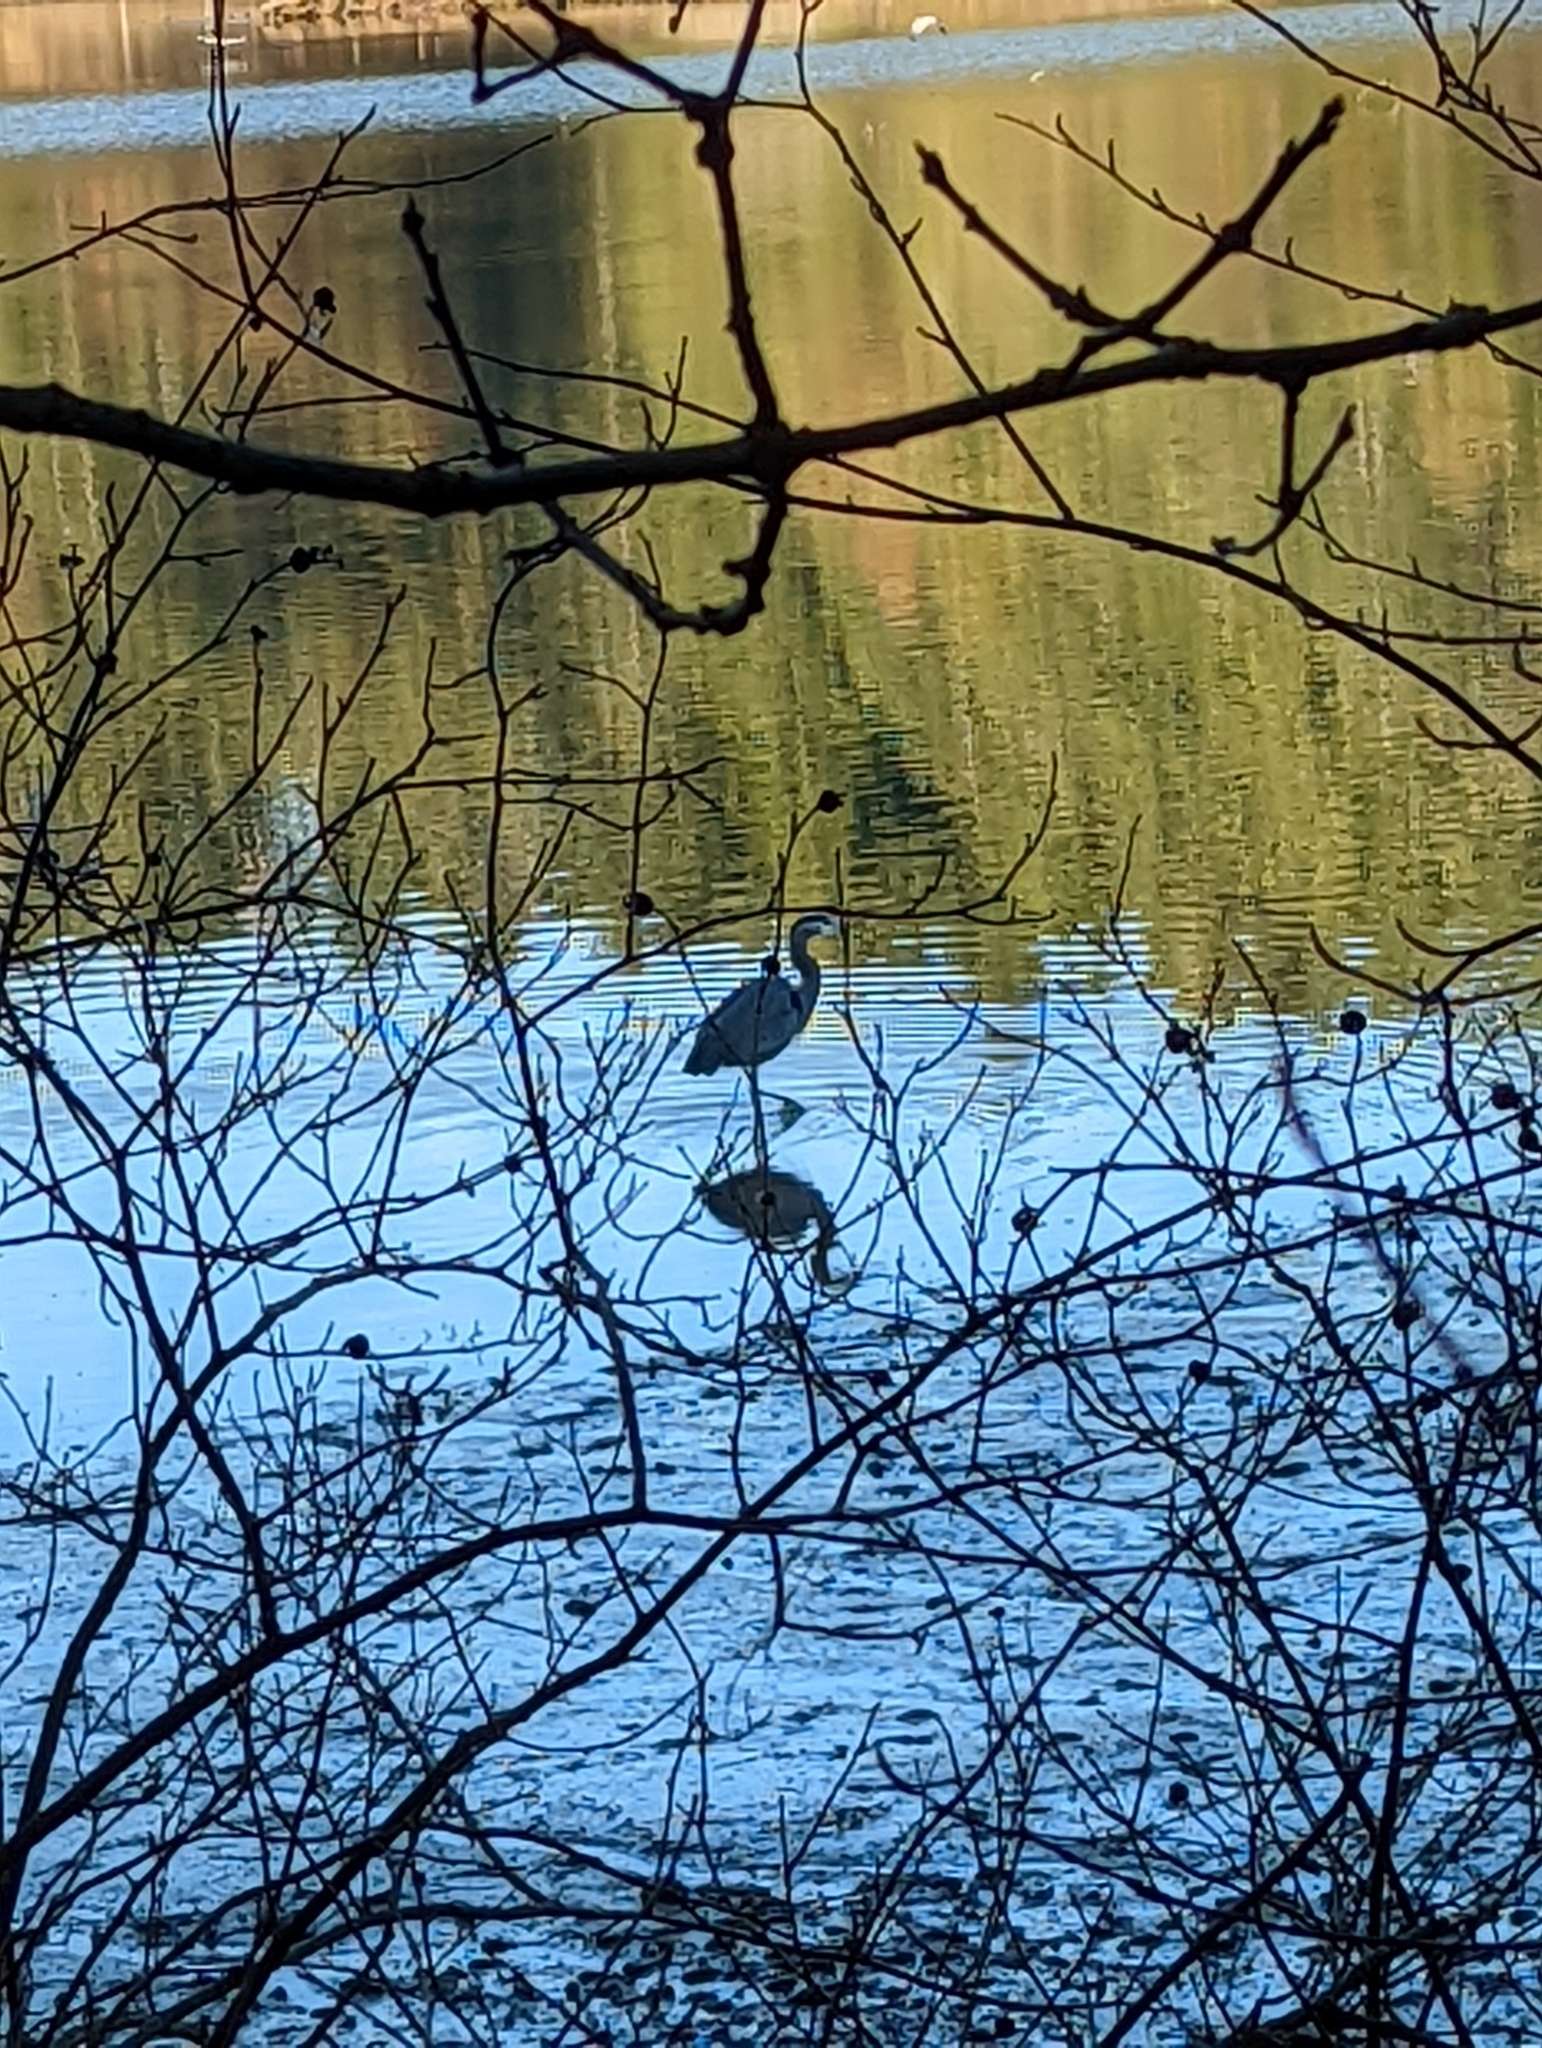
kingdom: Animalia
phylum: Chordata
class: Aves
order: Pelecaniformes
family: Ardeidae
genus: Ardea
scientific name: Ardea herodias
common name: Great blue heron
